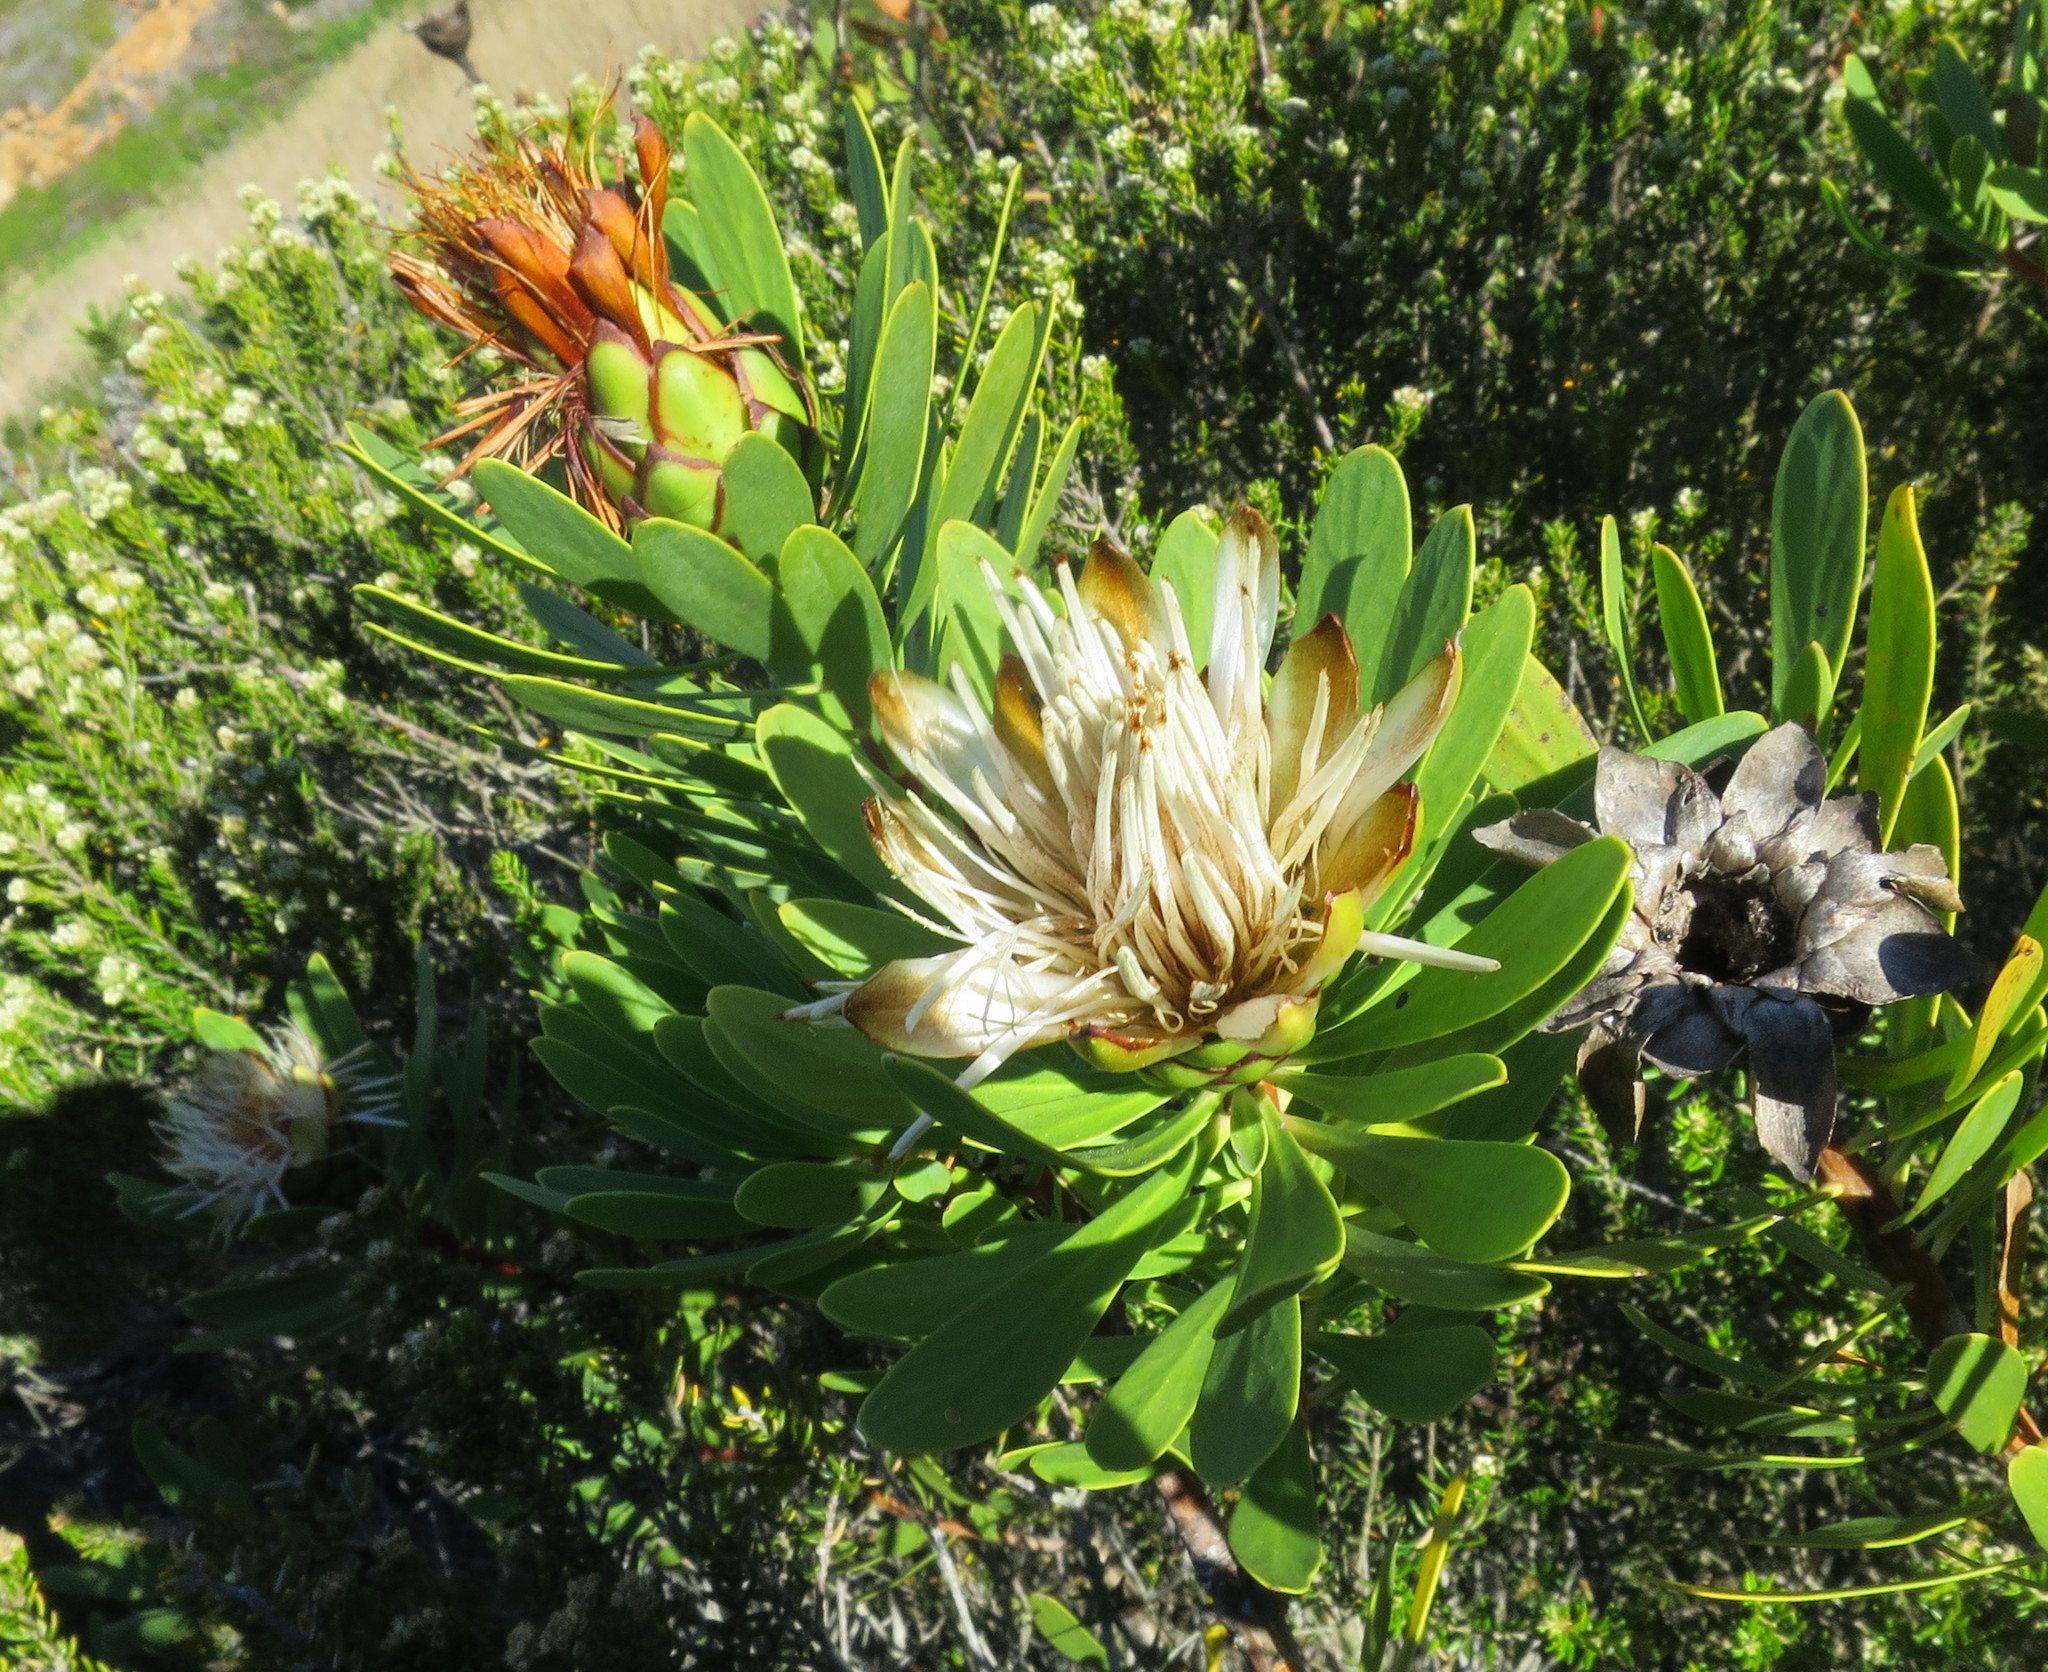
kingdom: Plantae
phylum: Tracheophyta
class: Magnoliopsida
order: Proteales
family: Proteaceae
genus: Protea
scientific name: Protea lanceolata
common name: Lance-leaved protea
